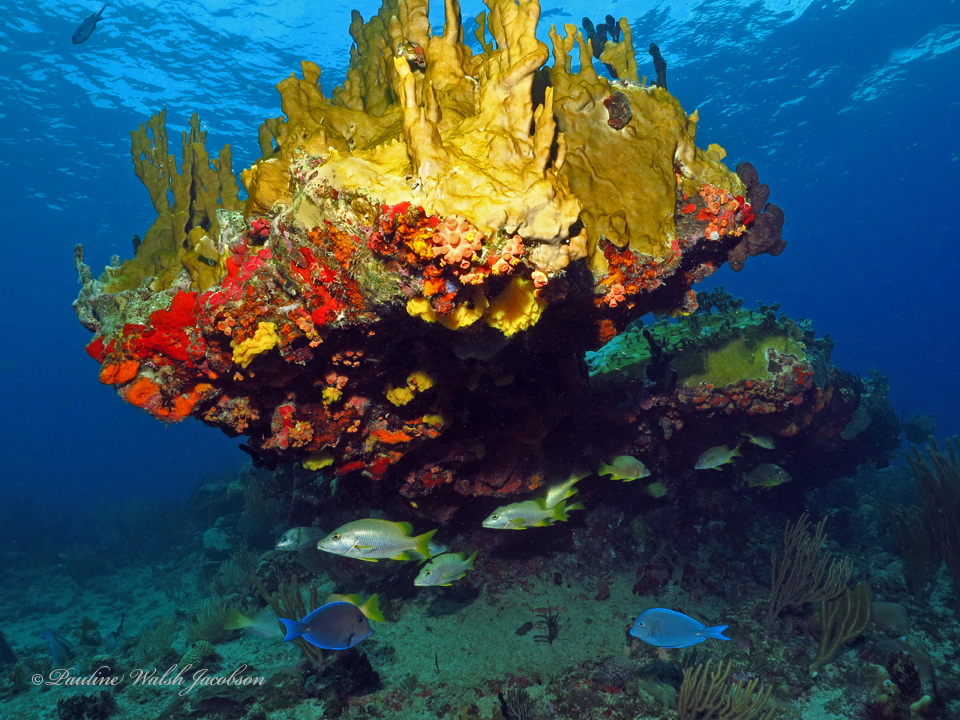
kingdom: Animalia
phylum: Chordata
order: Perciformes
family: Lutjanidae
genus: Lutjanus
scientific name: Lutjanus apodus
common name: Schoolmaster
